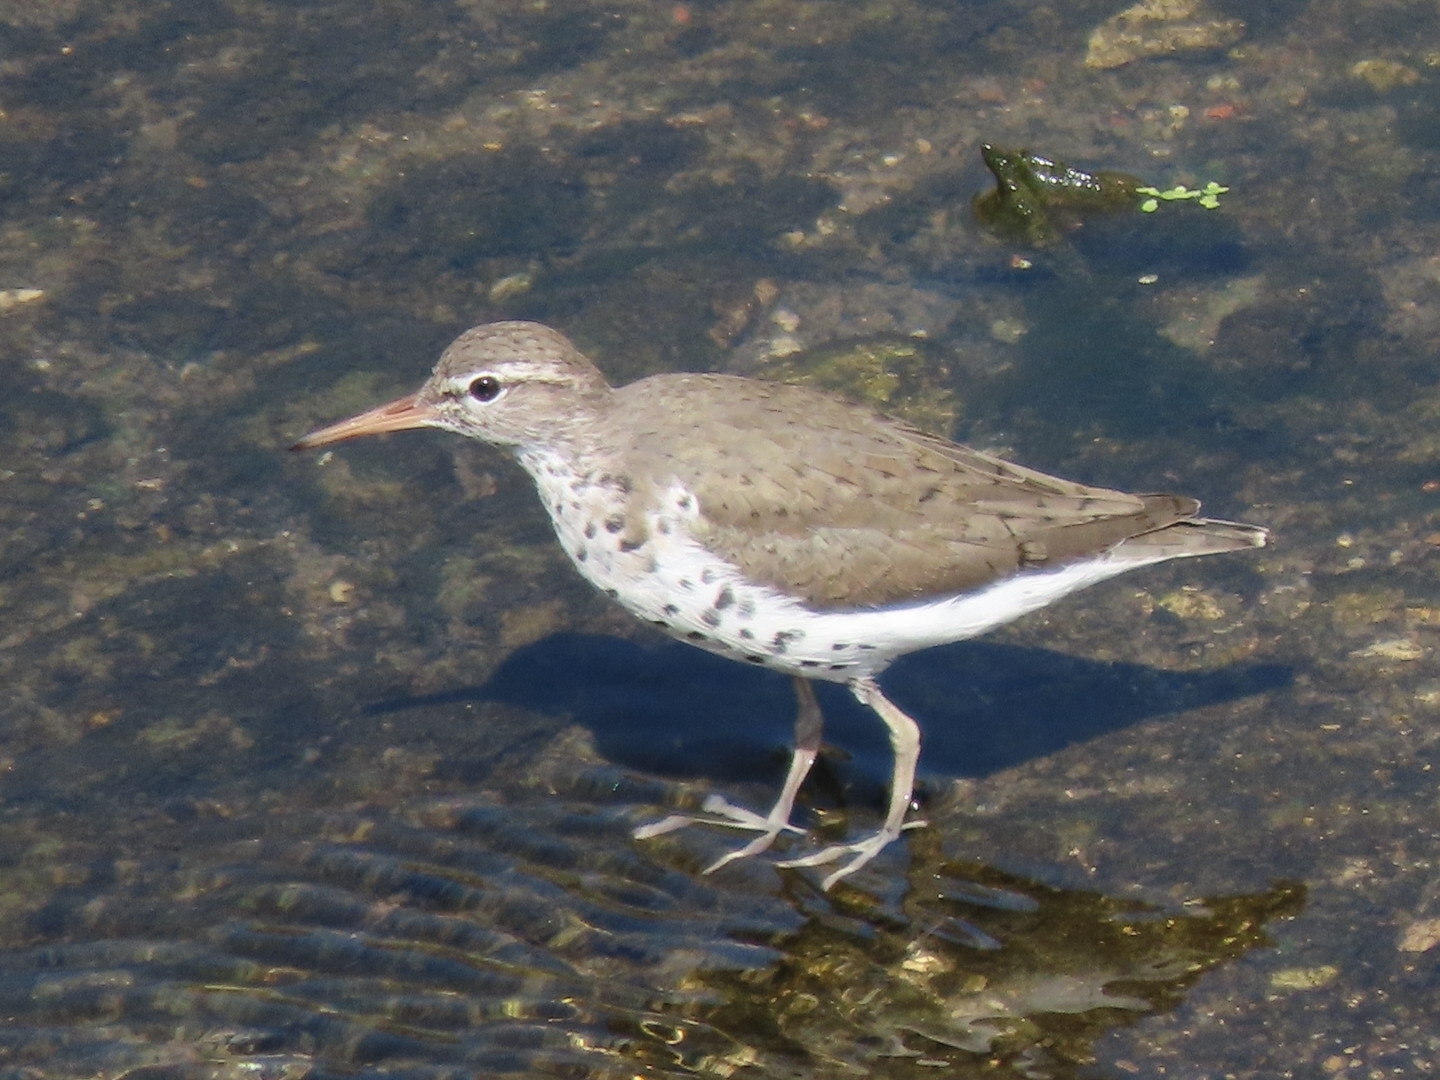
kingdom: Animalia
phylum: Chordata
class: Aves
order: Charadriiformes
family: Scolopacidae
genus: Actitis
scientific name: Actitis macularius
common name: Spotted sandpiper
